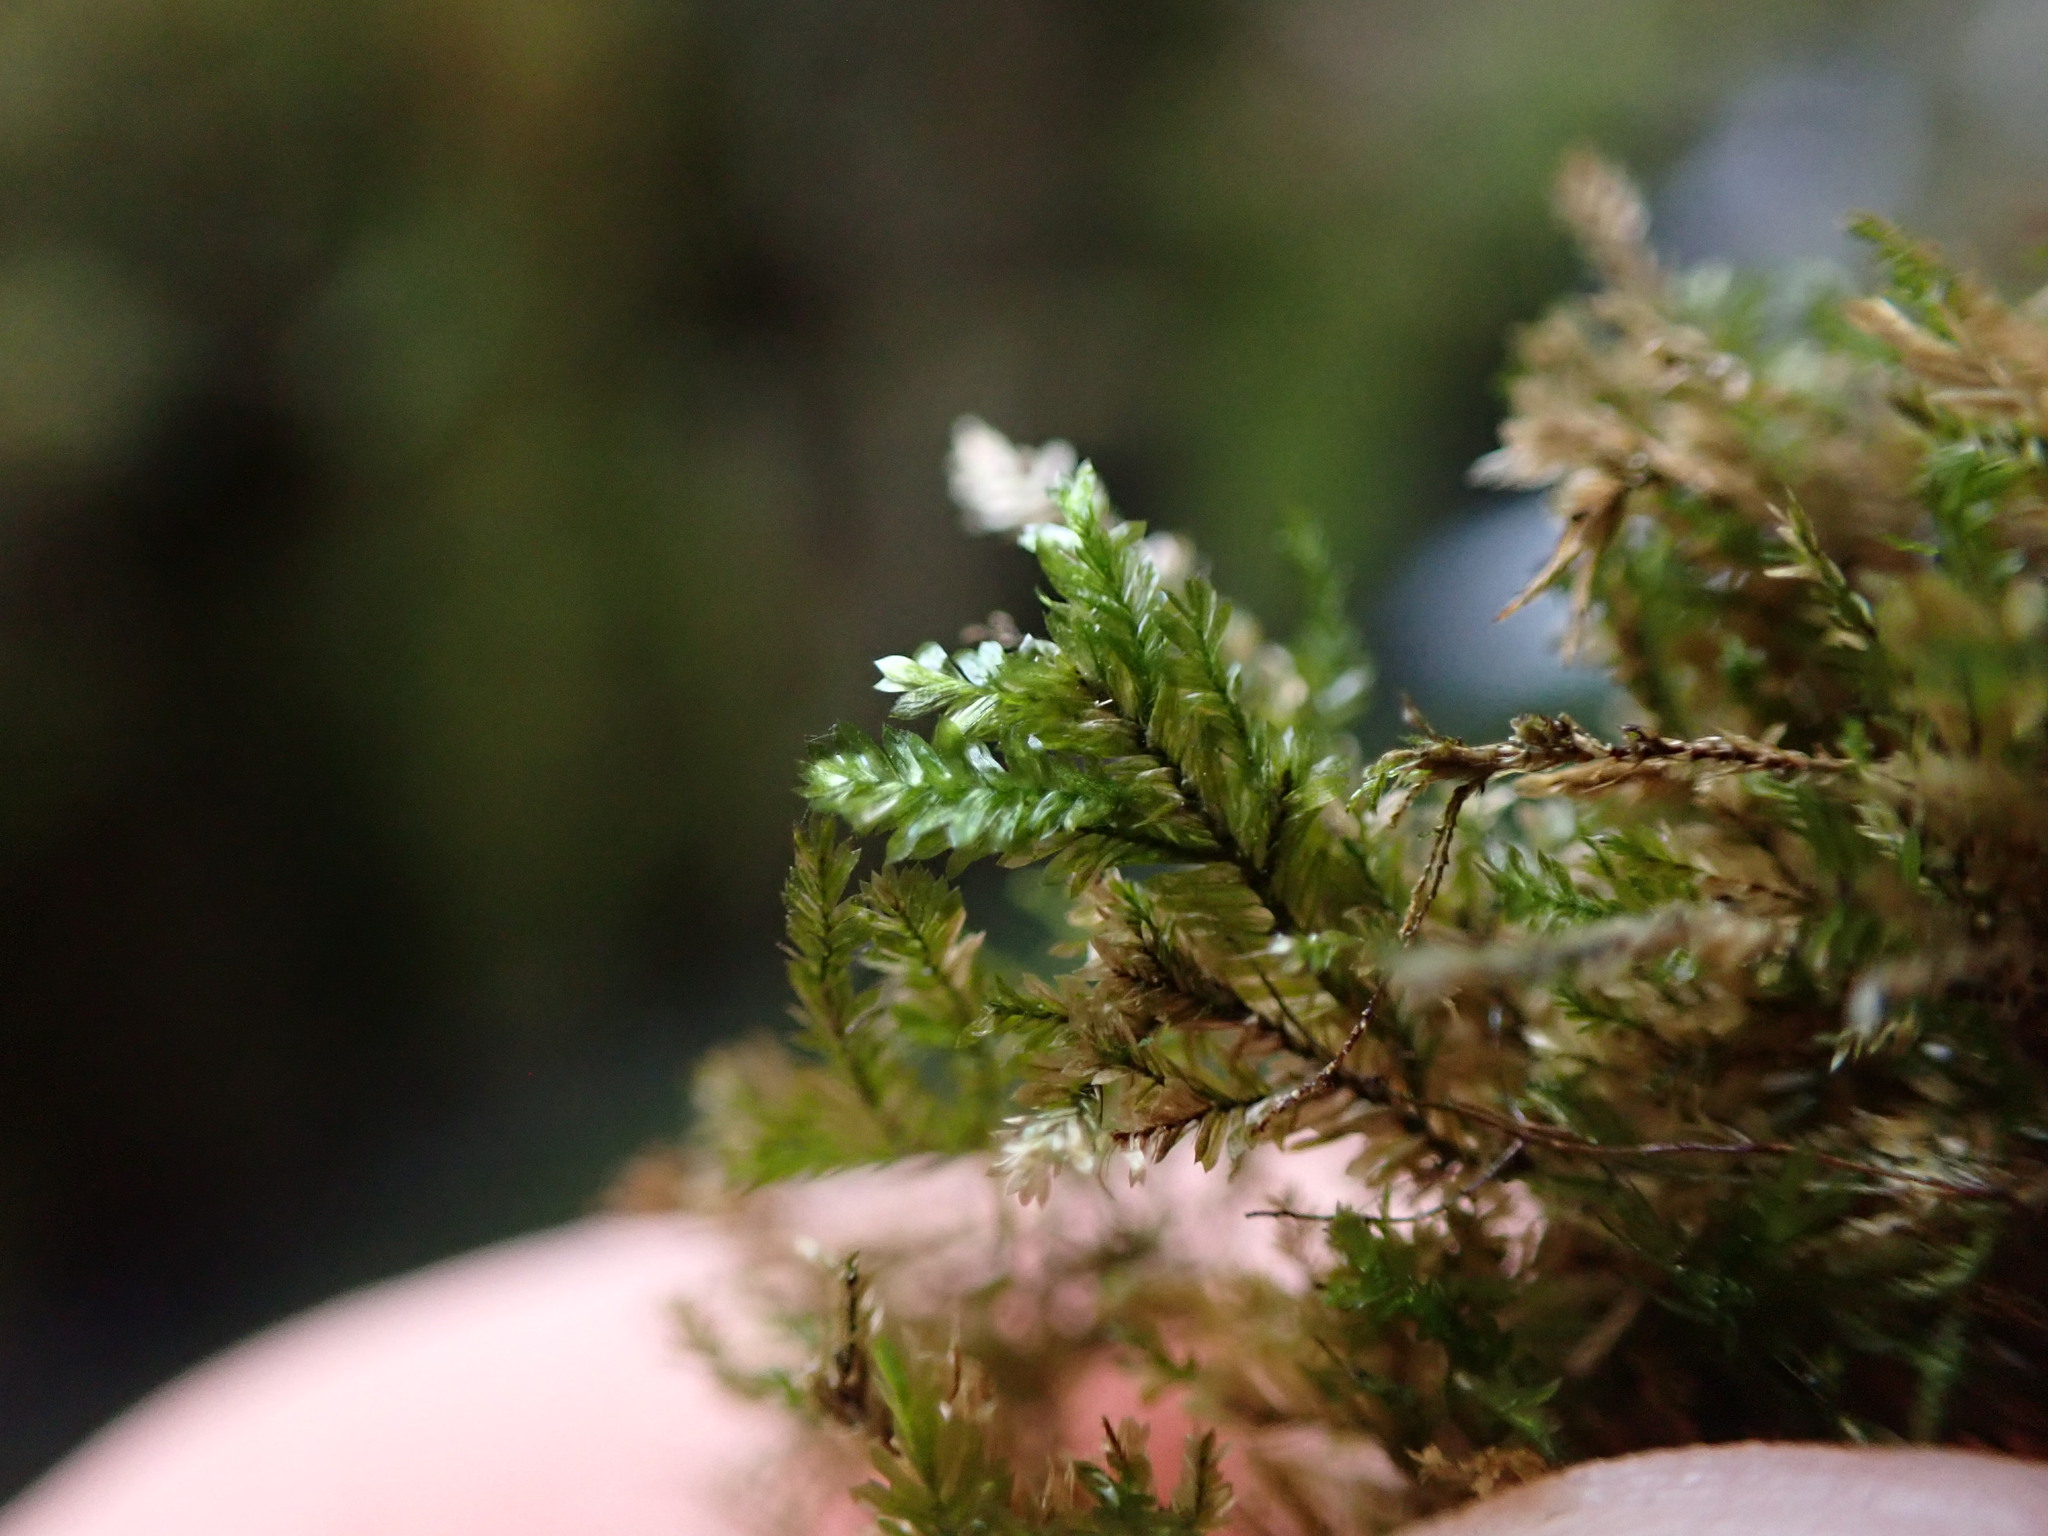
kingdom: Plantae
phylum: Bryophyta
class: Bryopsida
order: Hypnales
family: Neckeraceae
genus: Dannorrisia
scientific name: Dannorrisia bigelovii
